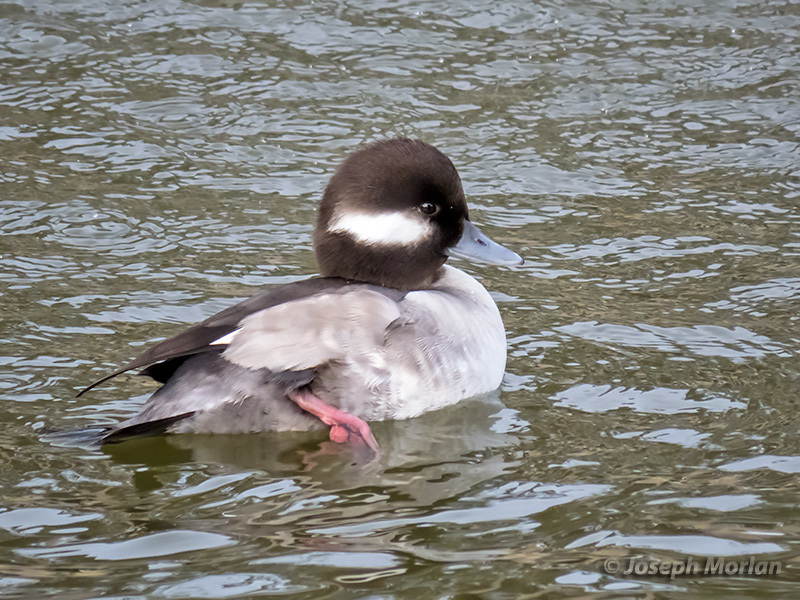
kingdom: Animalia
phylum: Chordata
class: Aves
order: Anseriformes
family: Anatidae
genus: Bucephala
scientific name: Bucephala albeola
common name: Bufflehead
